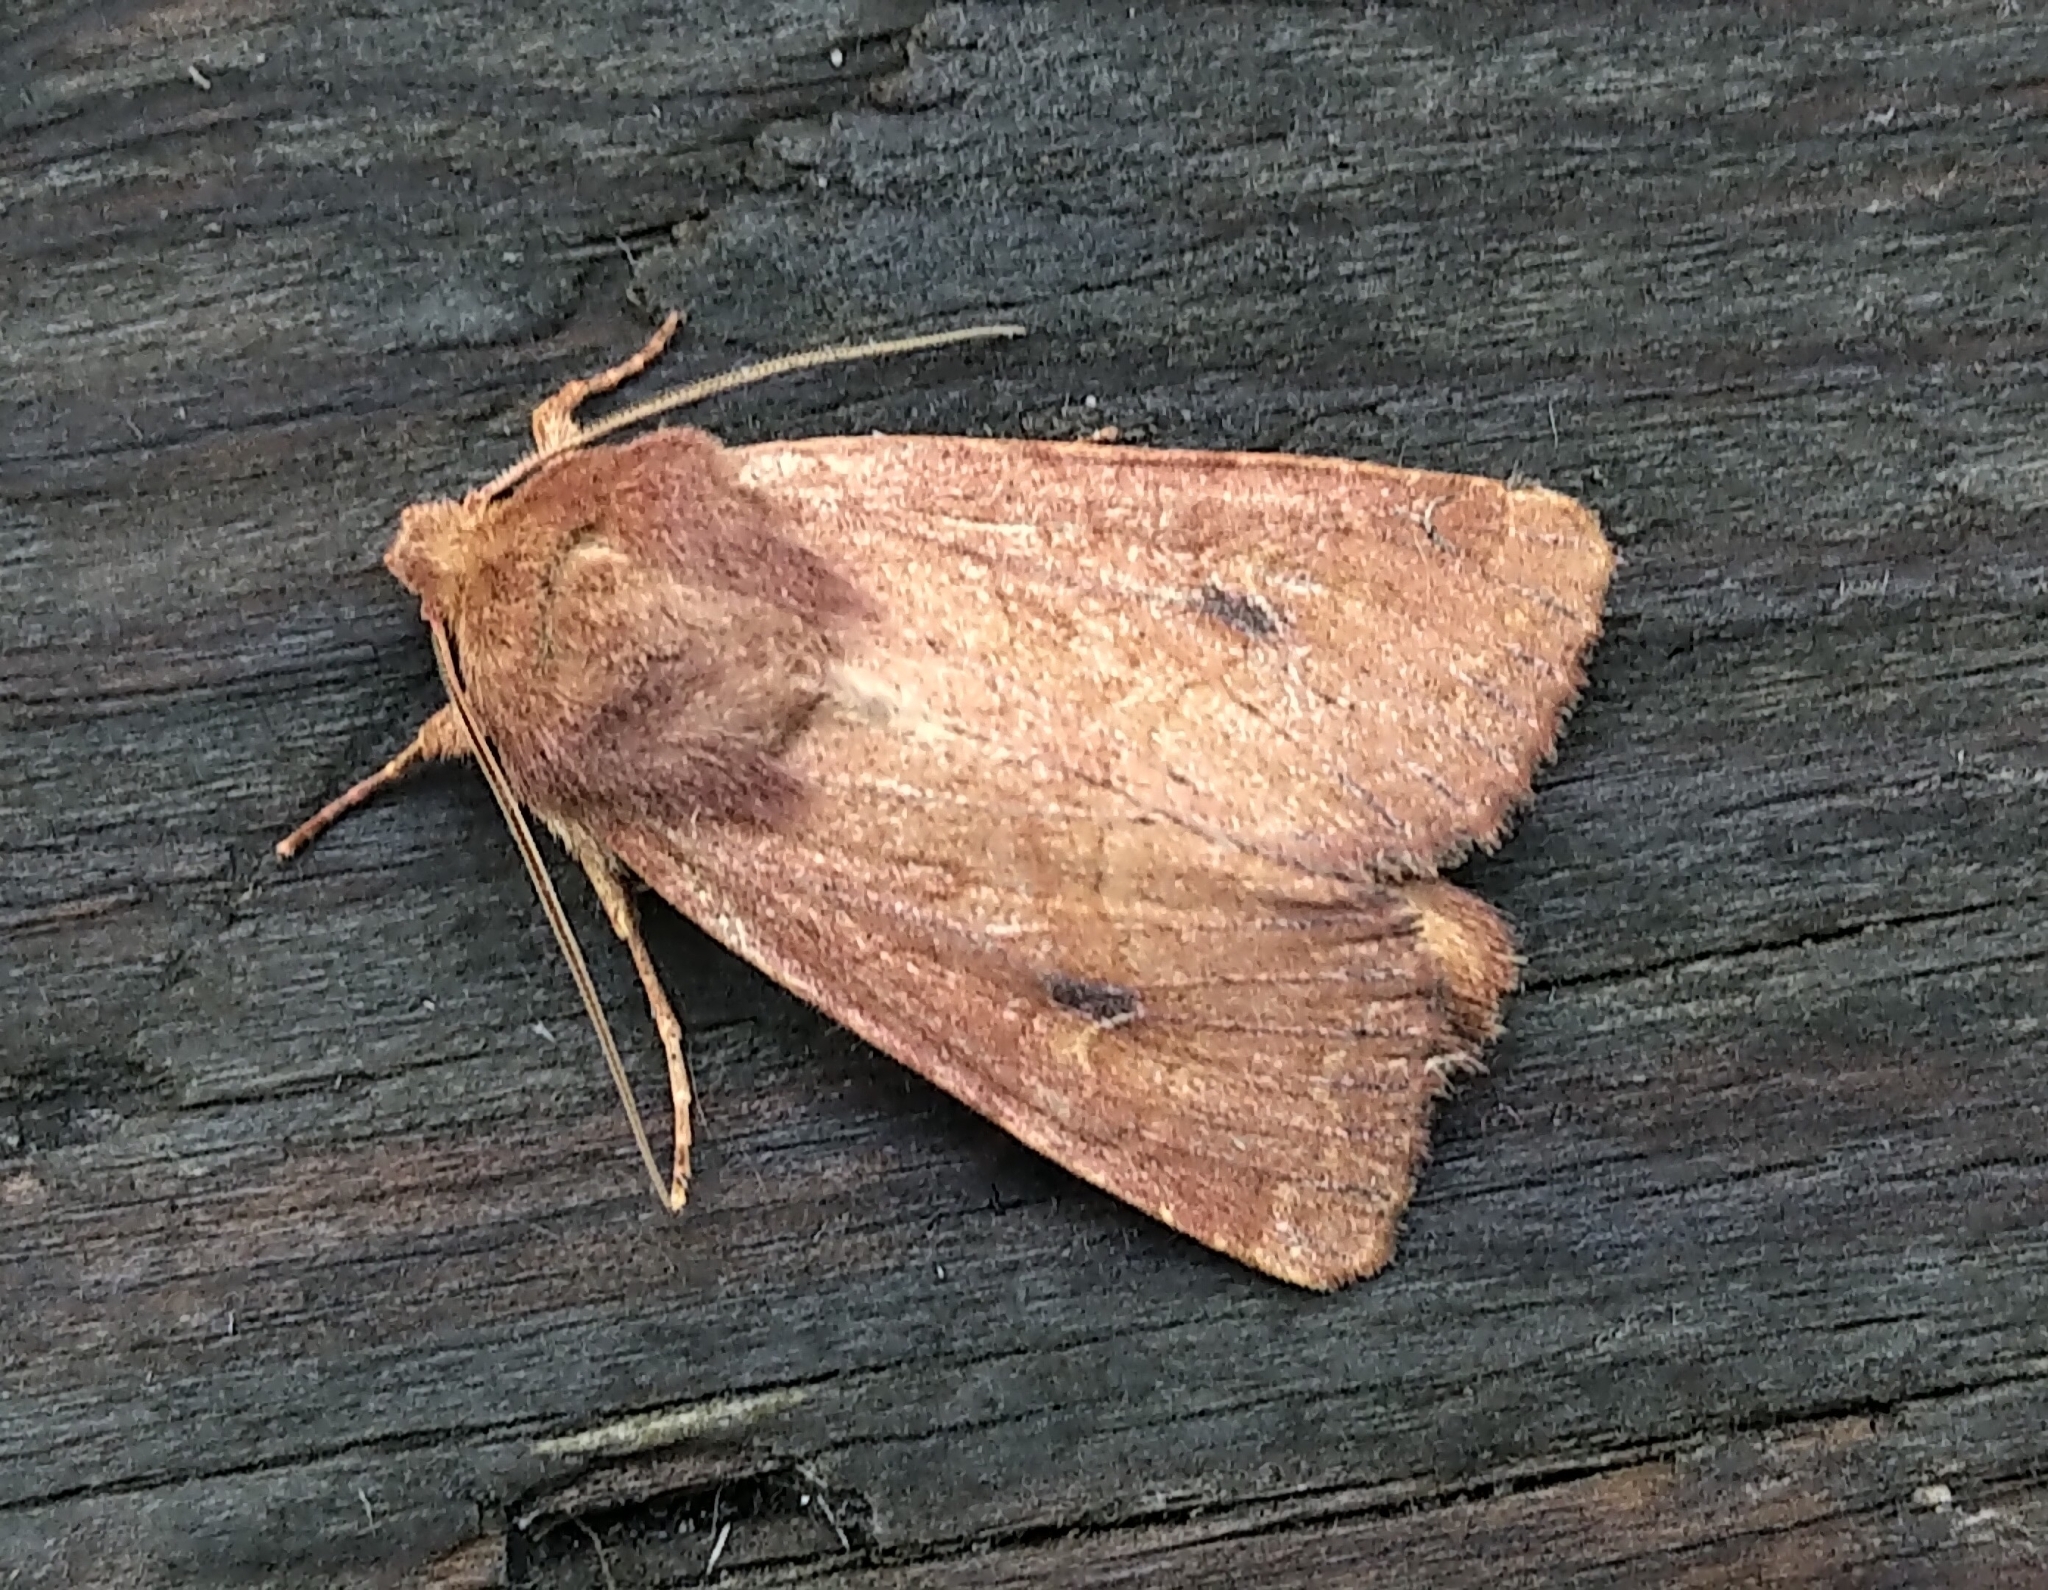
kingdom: Animalia
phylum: Arthropoda
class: Insecta
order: Lepidoptera
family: Noctuidae
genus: Apamea
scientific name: Apamea inficita
